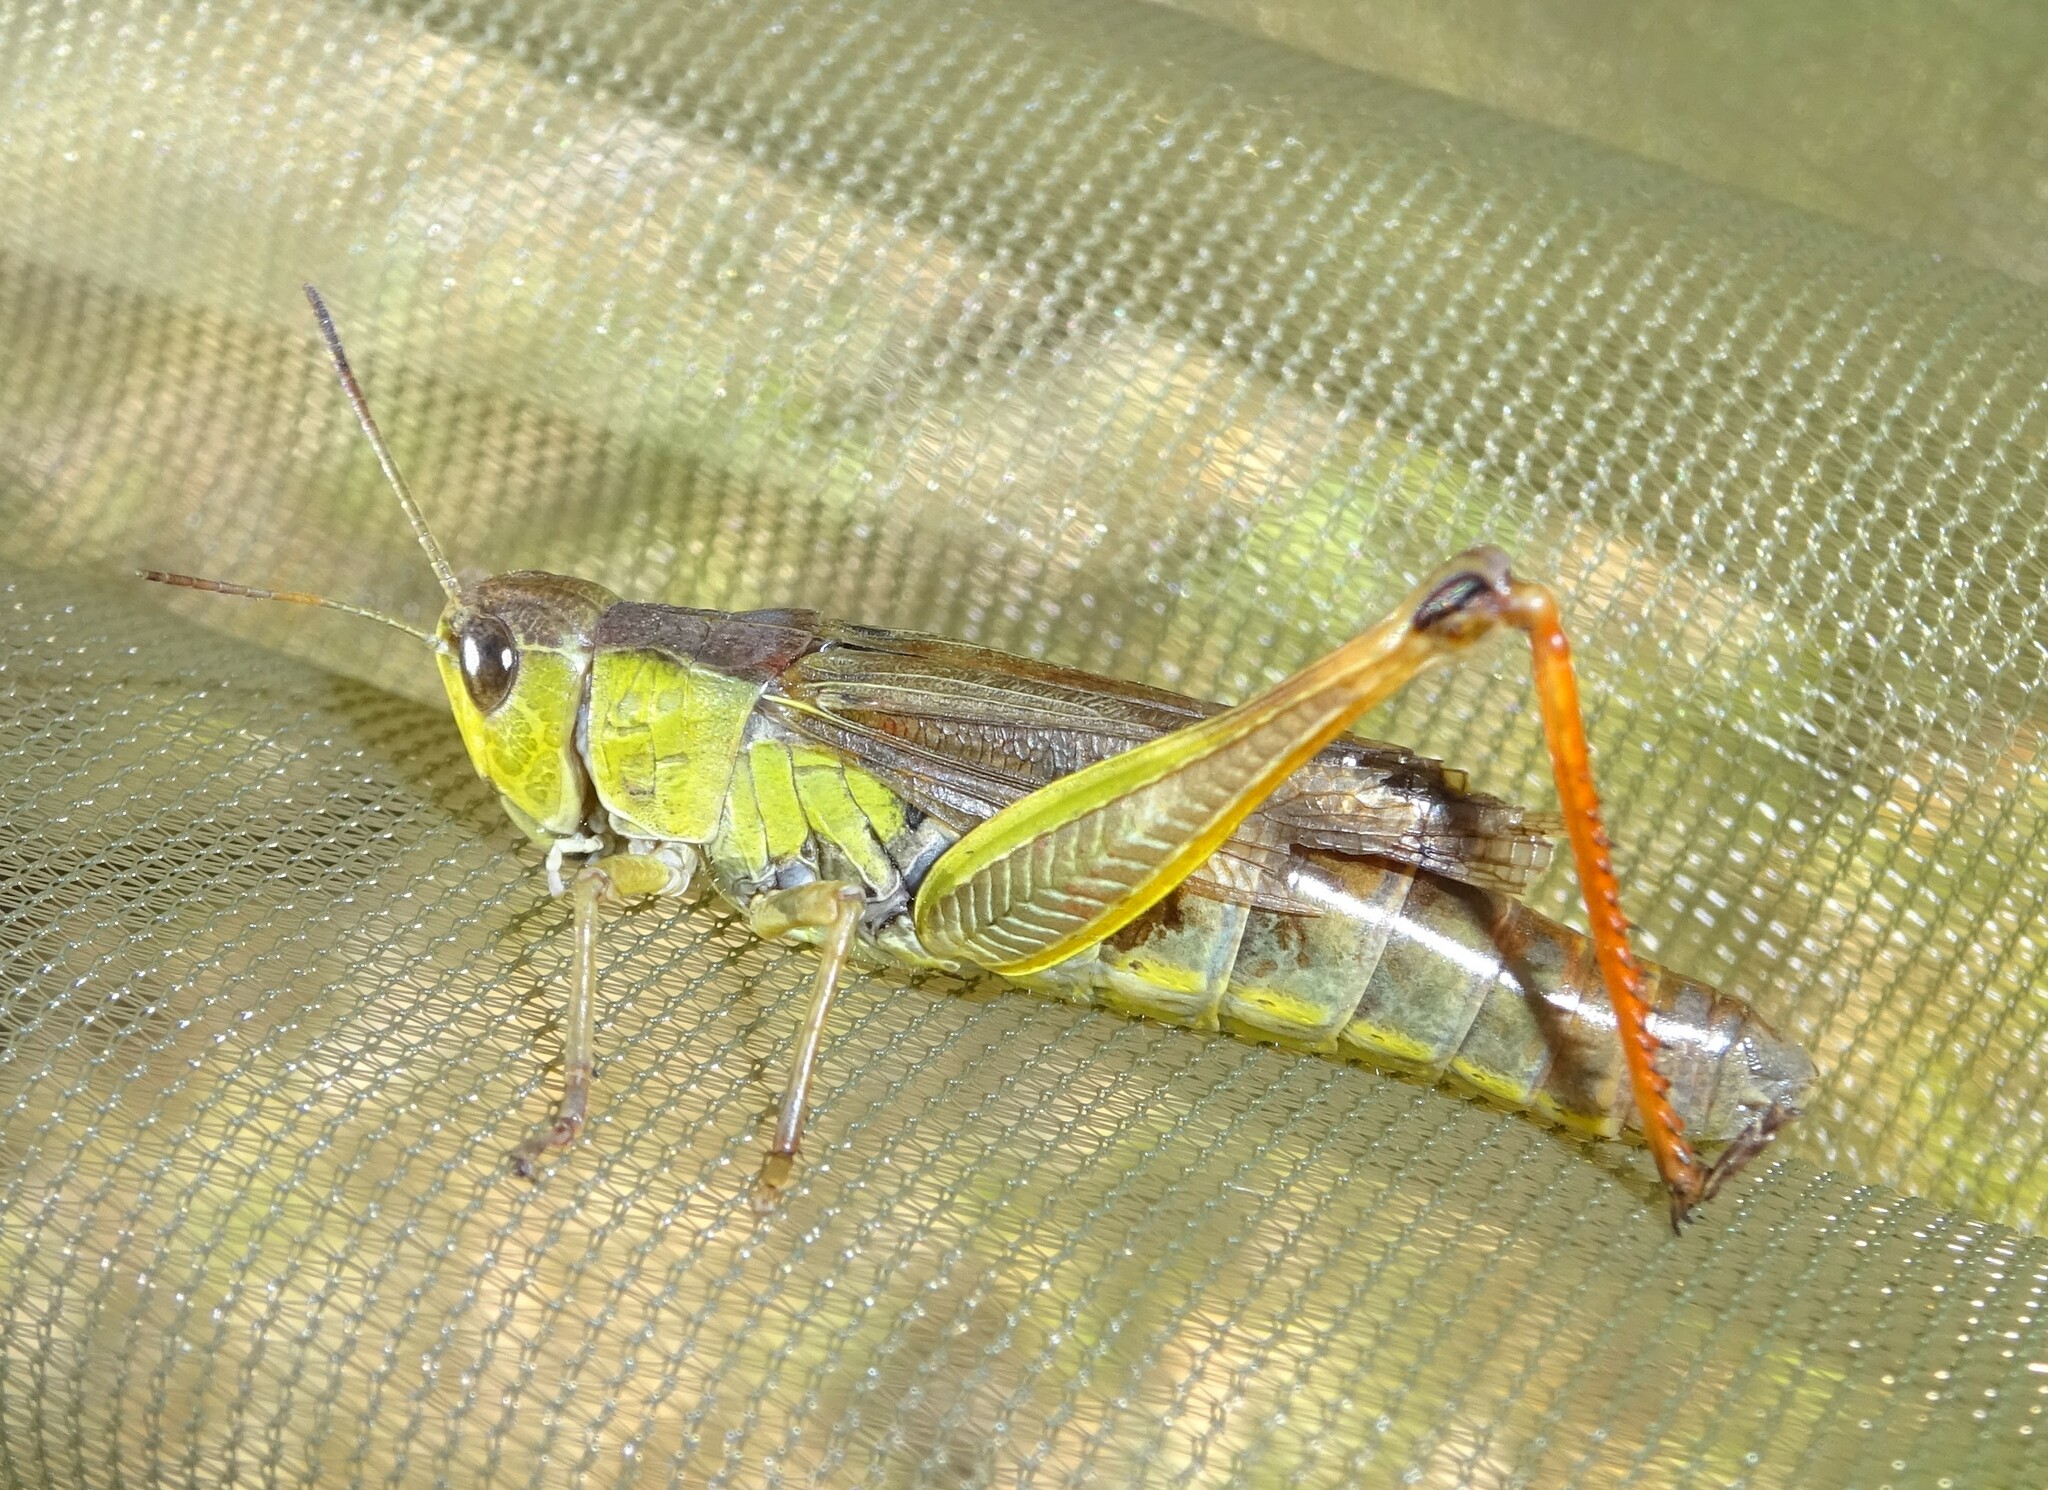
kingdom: Animalia
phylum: Arthropoda
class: Insecta
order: Orthoptera
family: Acrididae
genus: Stauroderus
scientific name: Stauroderus scalaris
